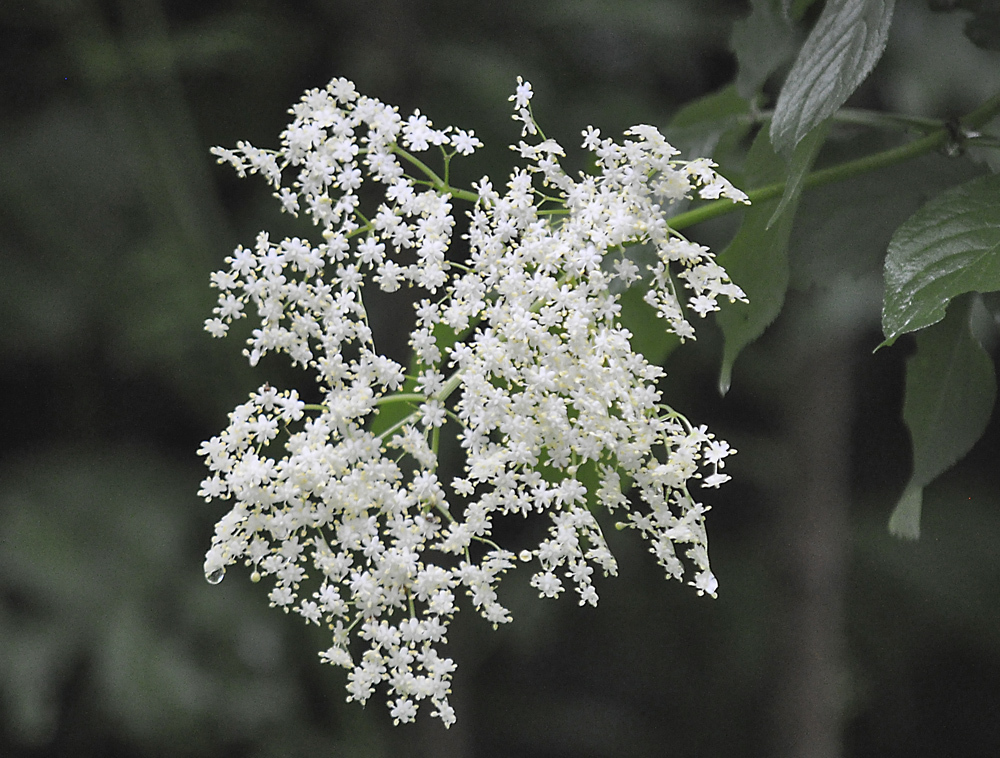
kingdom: Plantae
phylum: Tracheophyta
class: Magnoliopsida
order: Dipsacales
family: Viburnaceae
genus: Sambucus
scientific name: Sambucus nigra
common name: Elder
